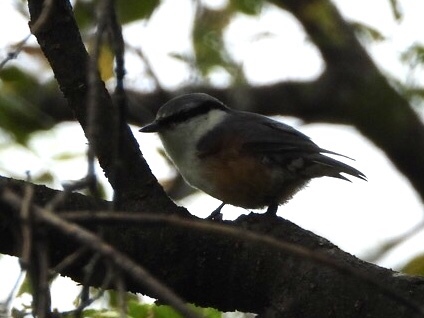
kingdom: Animalia
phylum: Chordata
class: Aves
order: Passeriformes
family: Sittidae
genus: Sitta
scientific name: Sitta europaea
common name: Eurasian nuthatch
